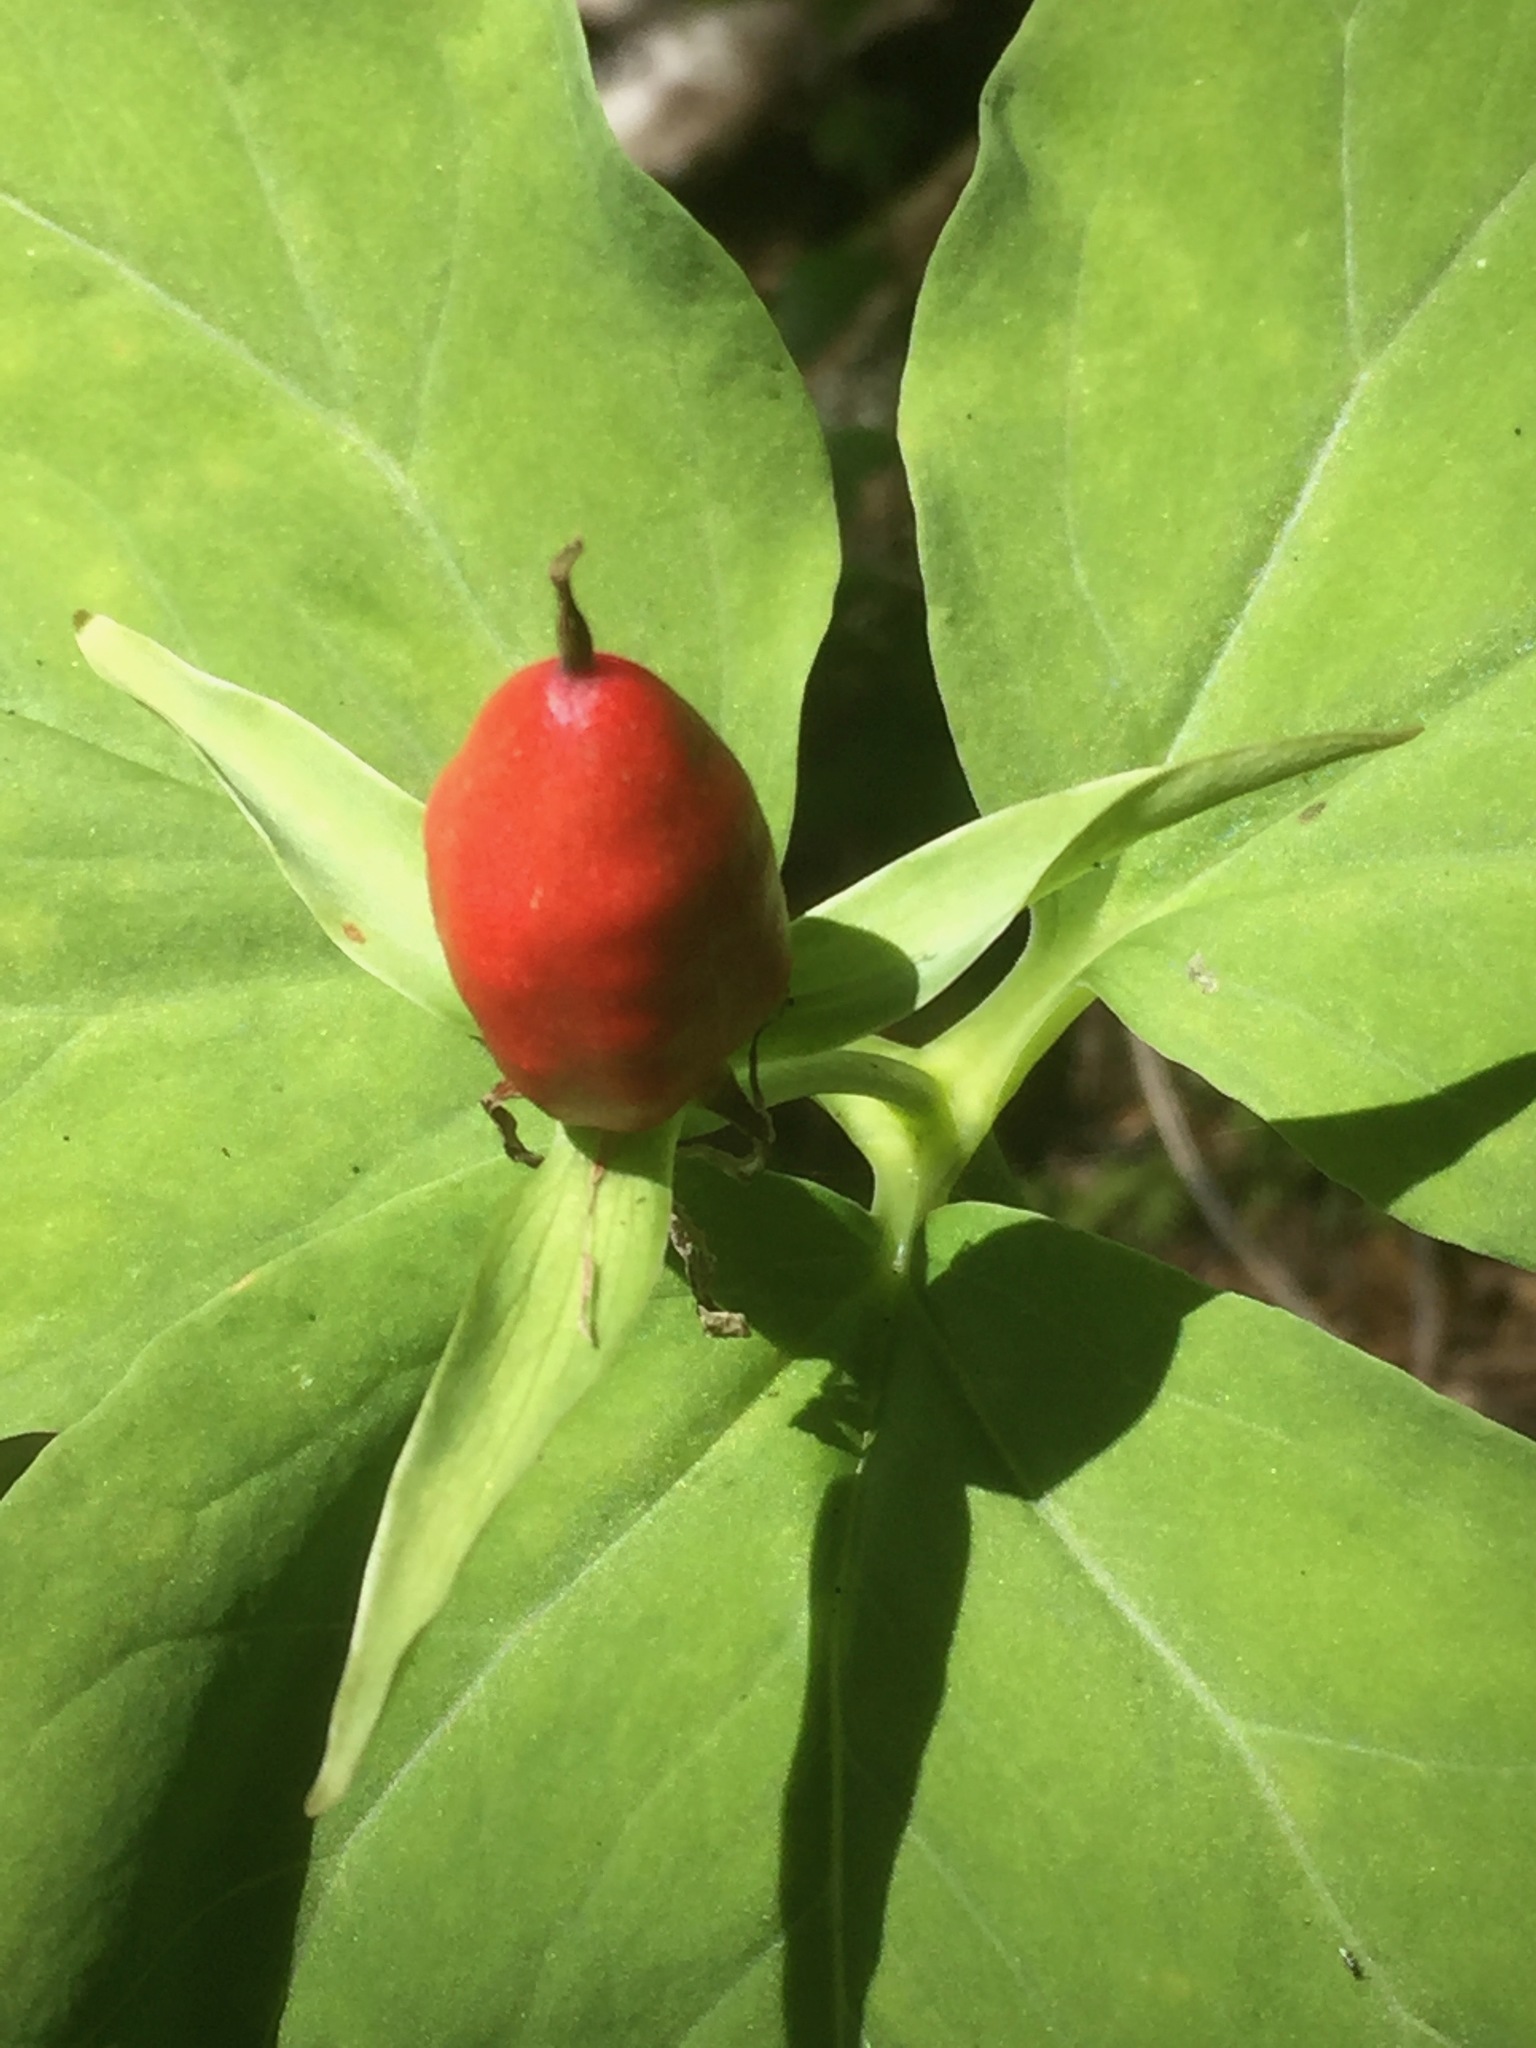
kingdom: Plantae
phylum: Tracheophyta
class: Liliopsida
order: Liliales
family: Melanthiaceae
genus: Trillium
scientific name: Trillium undulatum
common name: Paint trillium
